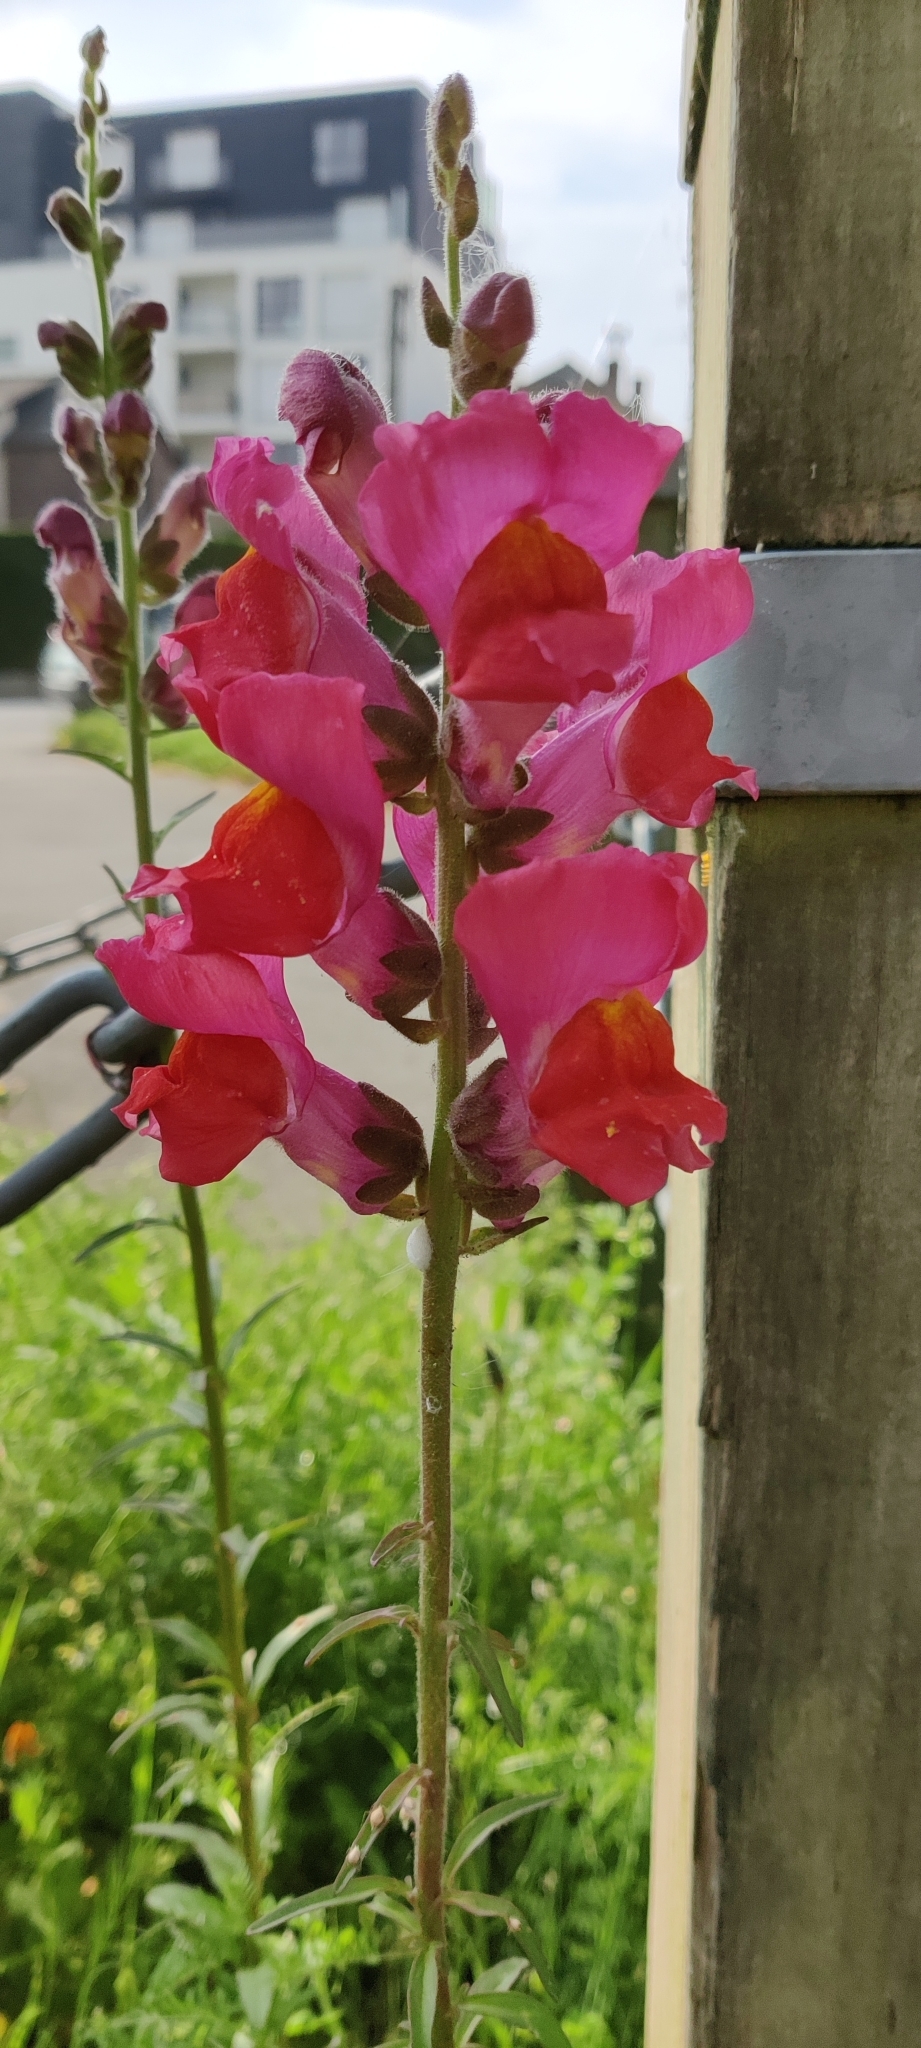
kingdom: Plantae
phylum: Tracheophyta
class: Magnoliopsida
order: Lamiales
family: Plantaginaceae
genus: Antirrhinum
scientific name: Antirrhinum majus
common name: Snapdragon
